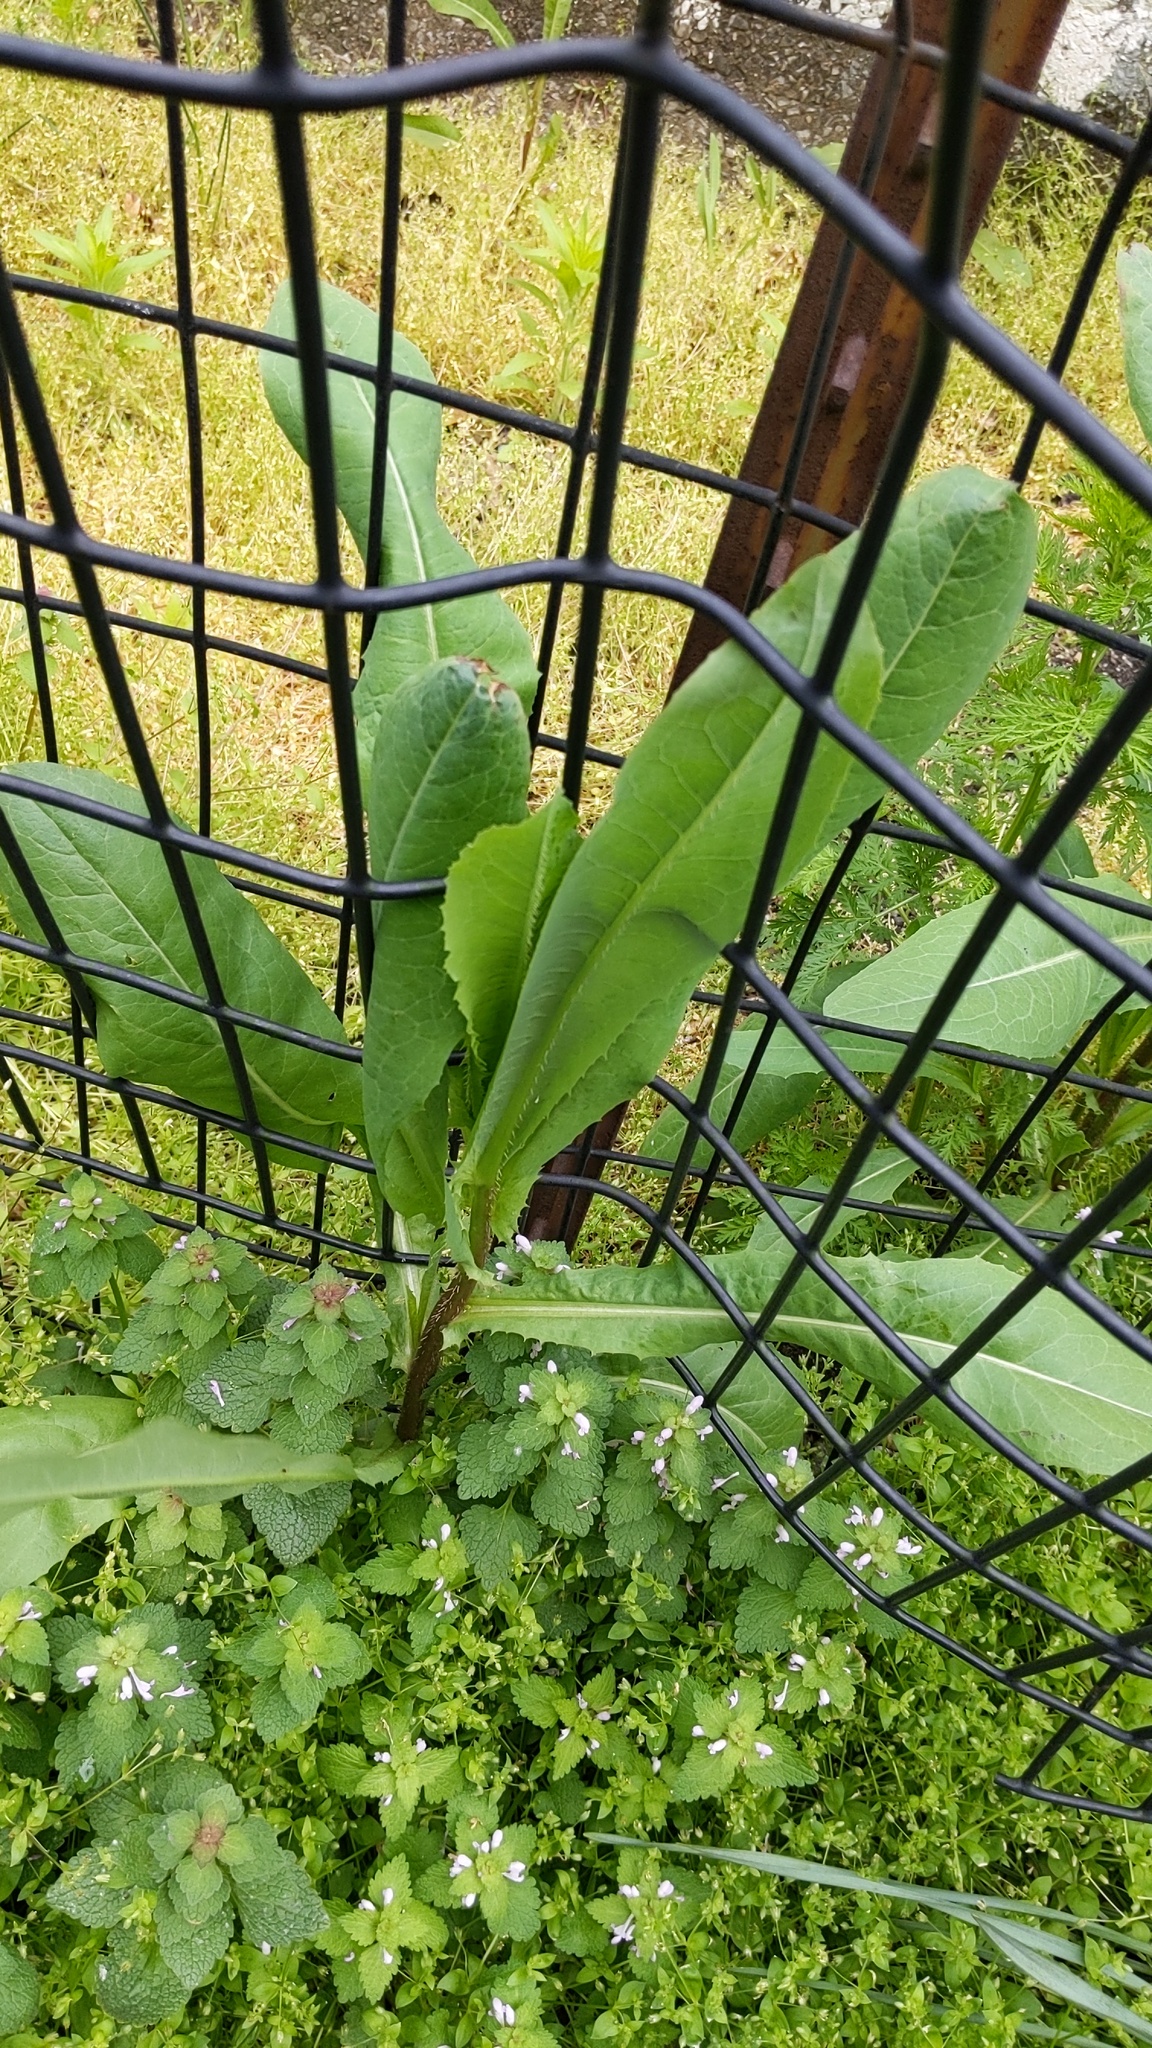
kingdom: Plantae
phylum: Tracheophyta
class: Magnoliopsida
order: Asterales
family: Asteraceae
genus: Lactuca
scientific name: Lactuca serriola
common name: Prickly lettuce
